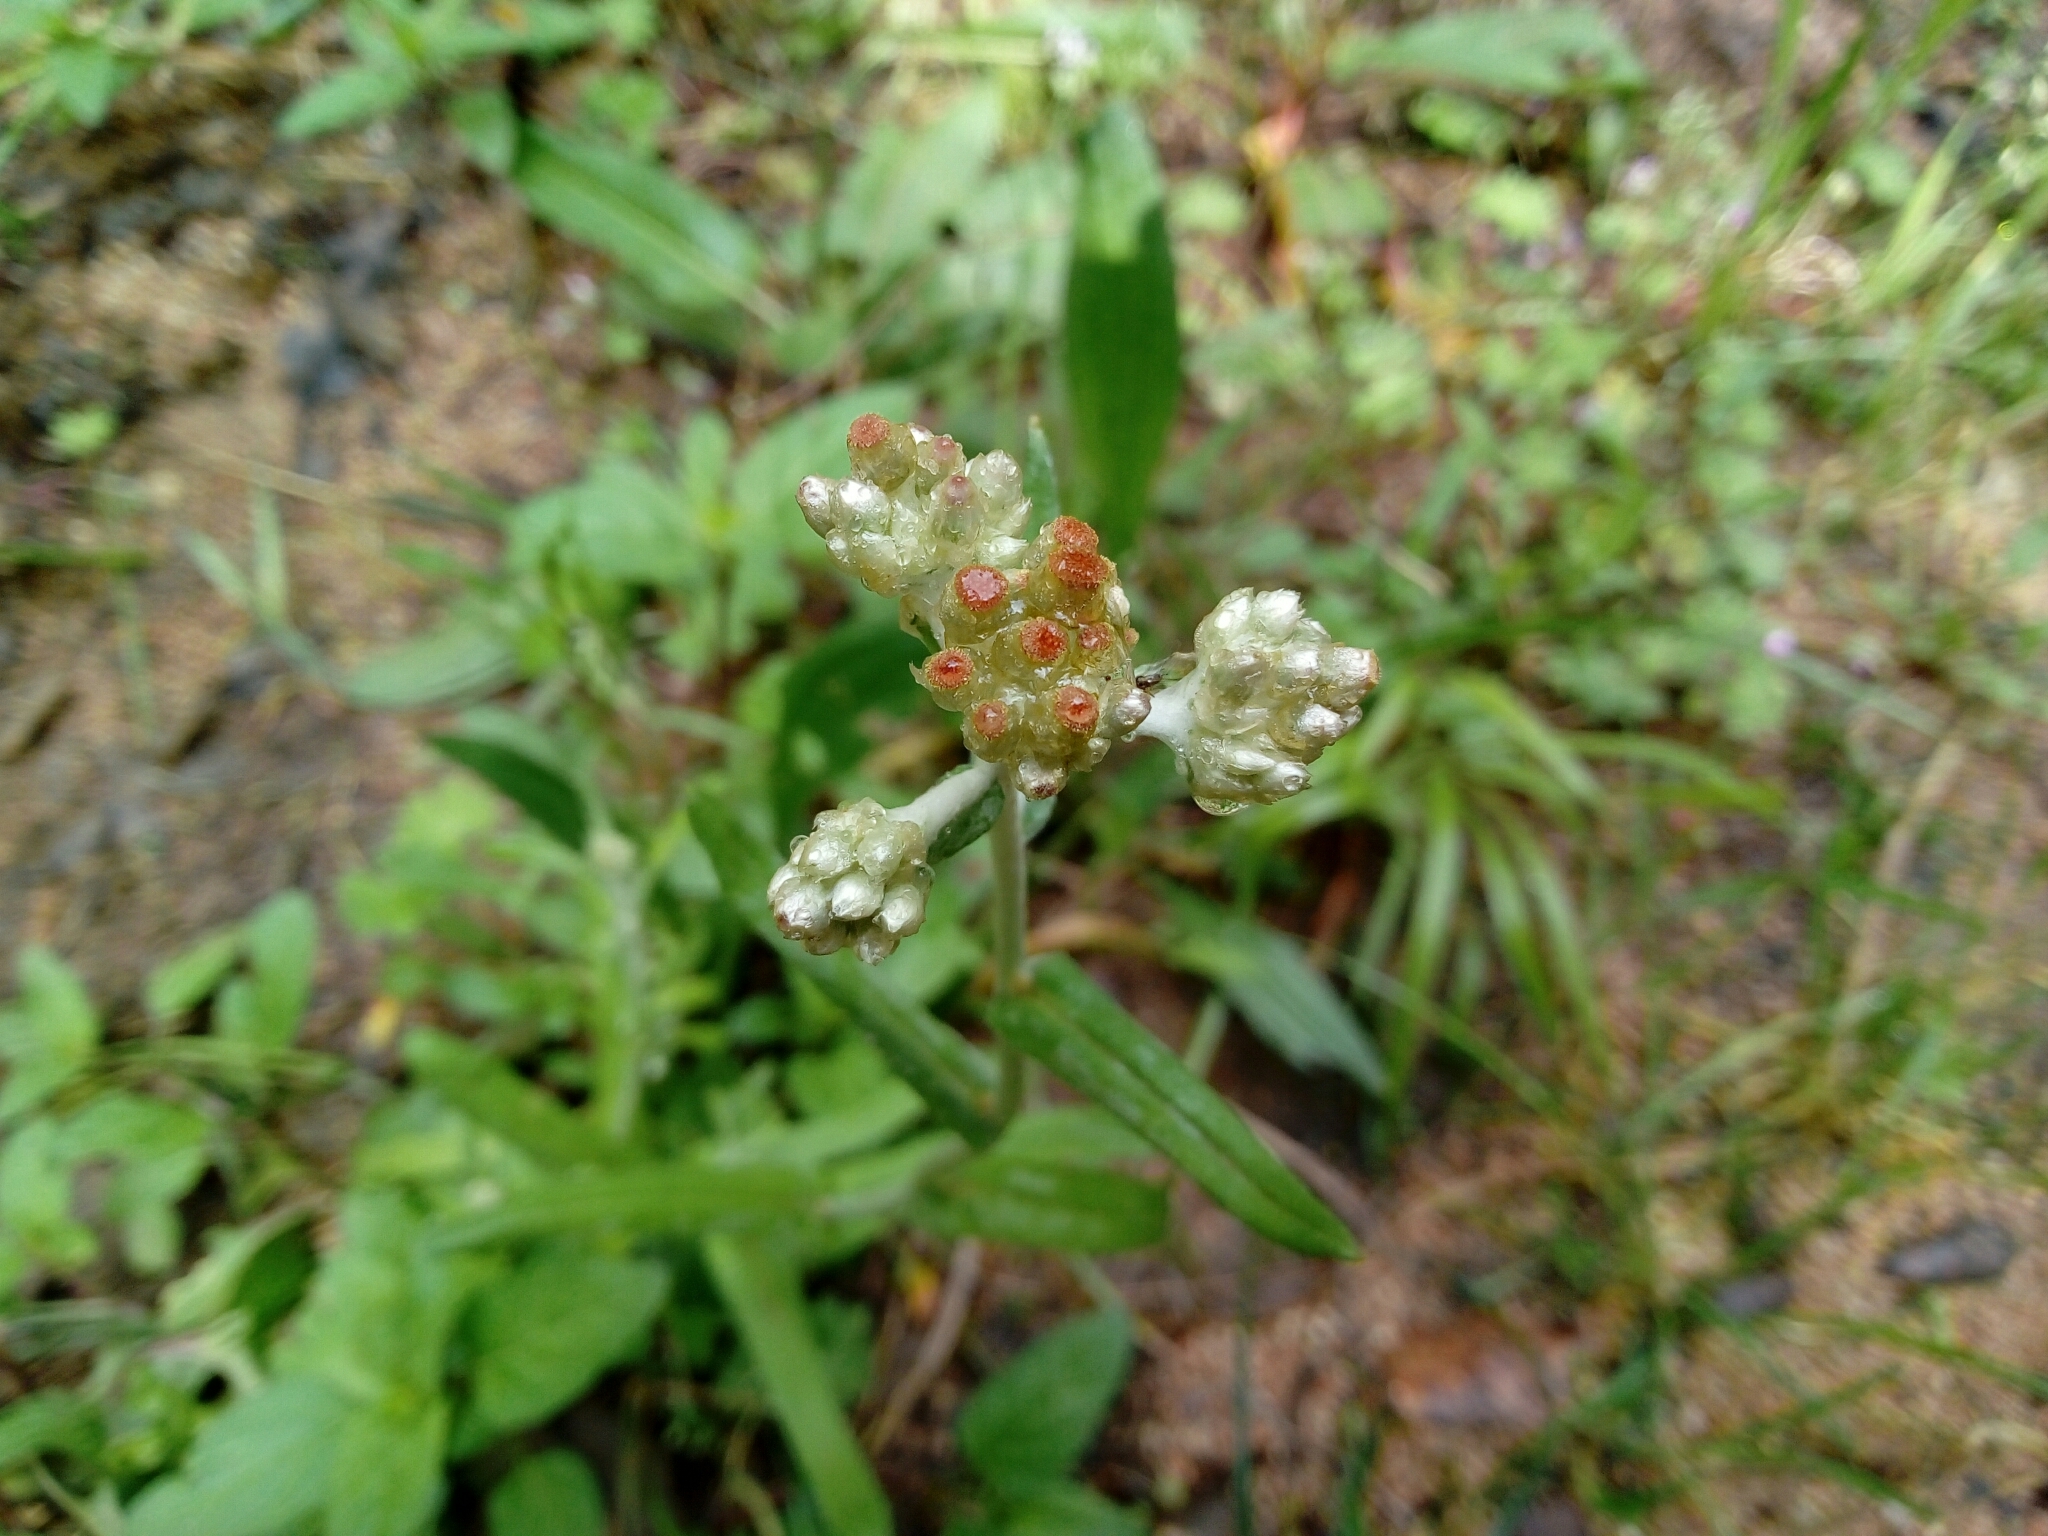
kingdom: Plantae
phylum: Tracheophyta
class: Magnoliopsida
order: Asterales
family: Asteraceae
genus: Helichrysum
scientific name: Helichrysum luteoalbum
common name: Daisy
